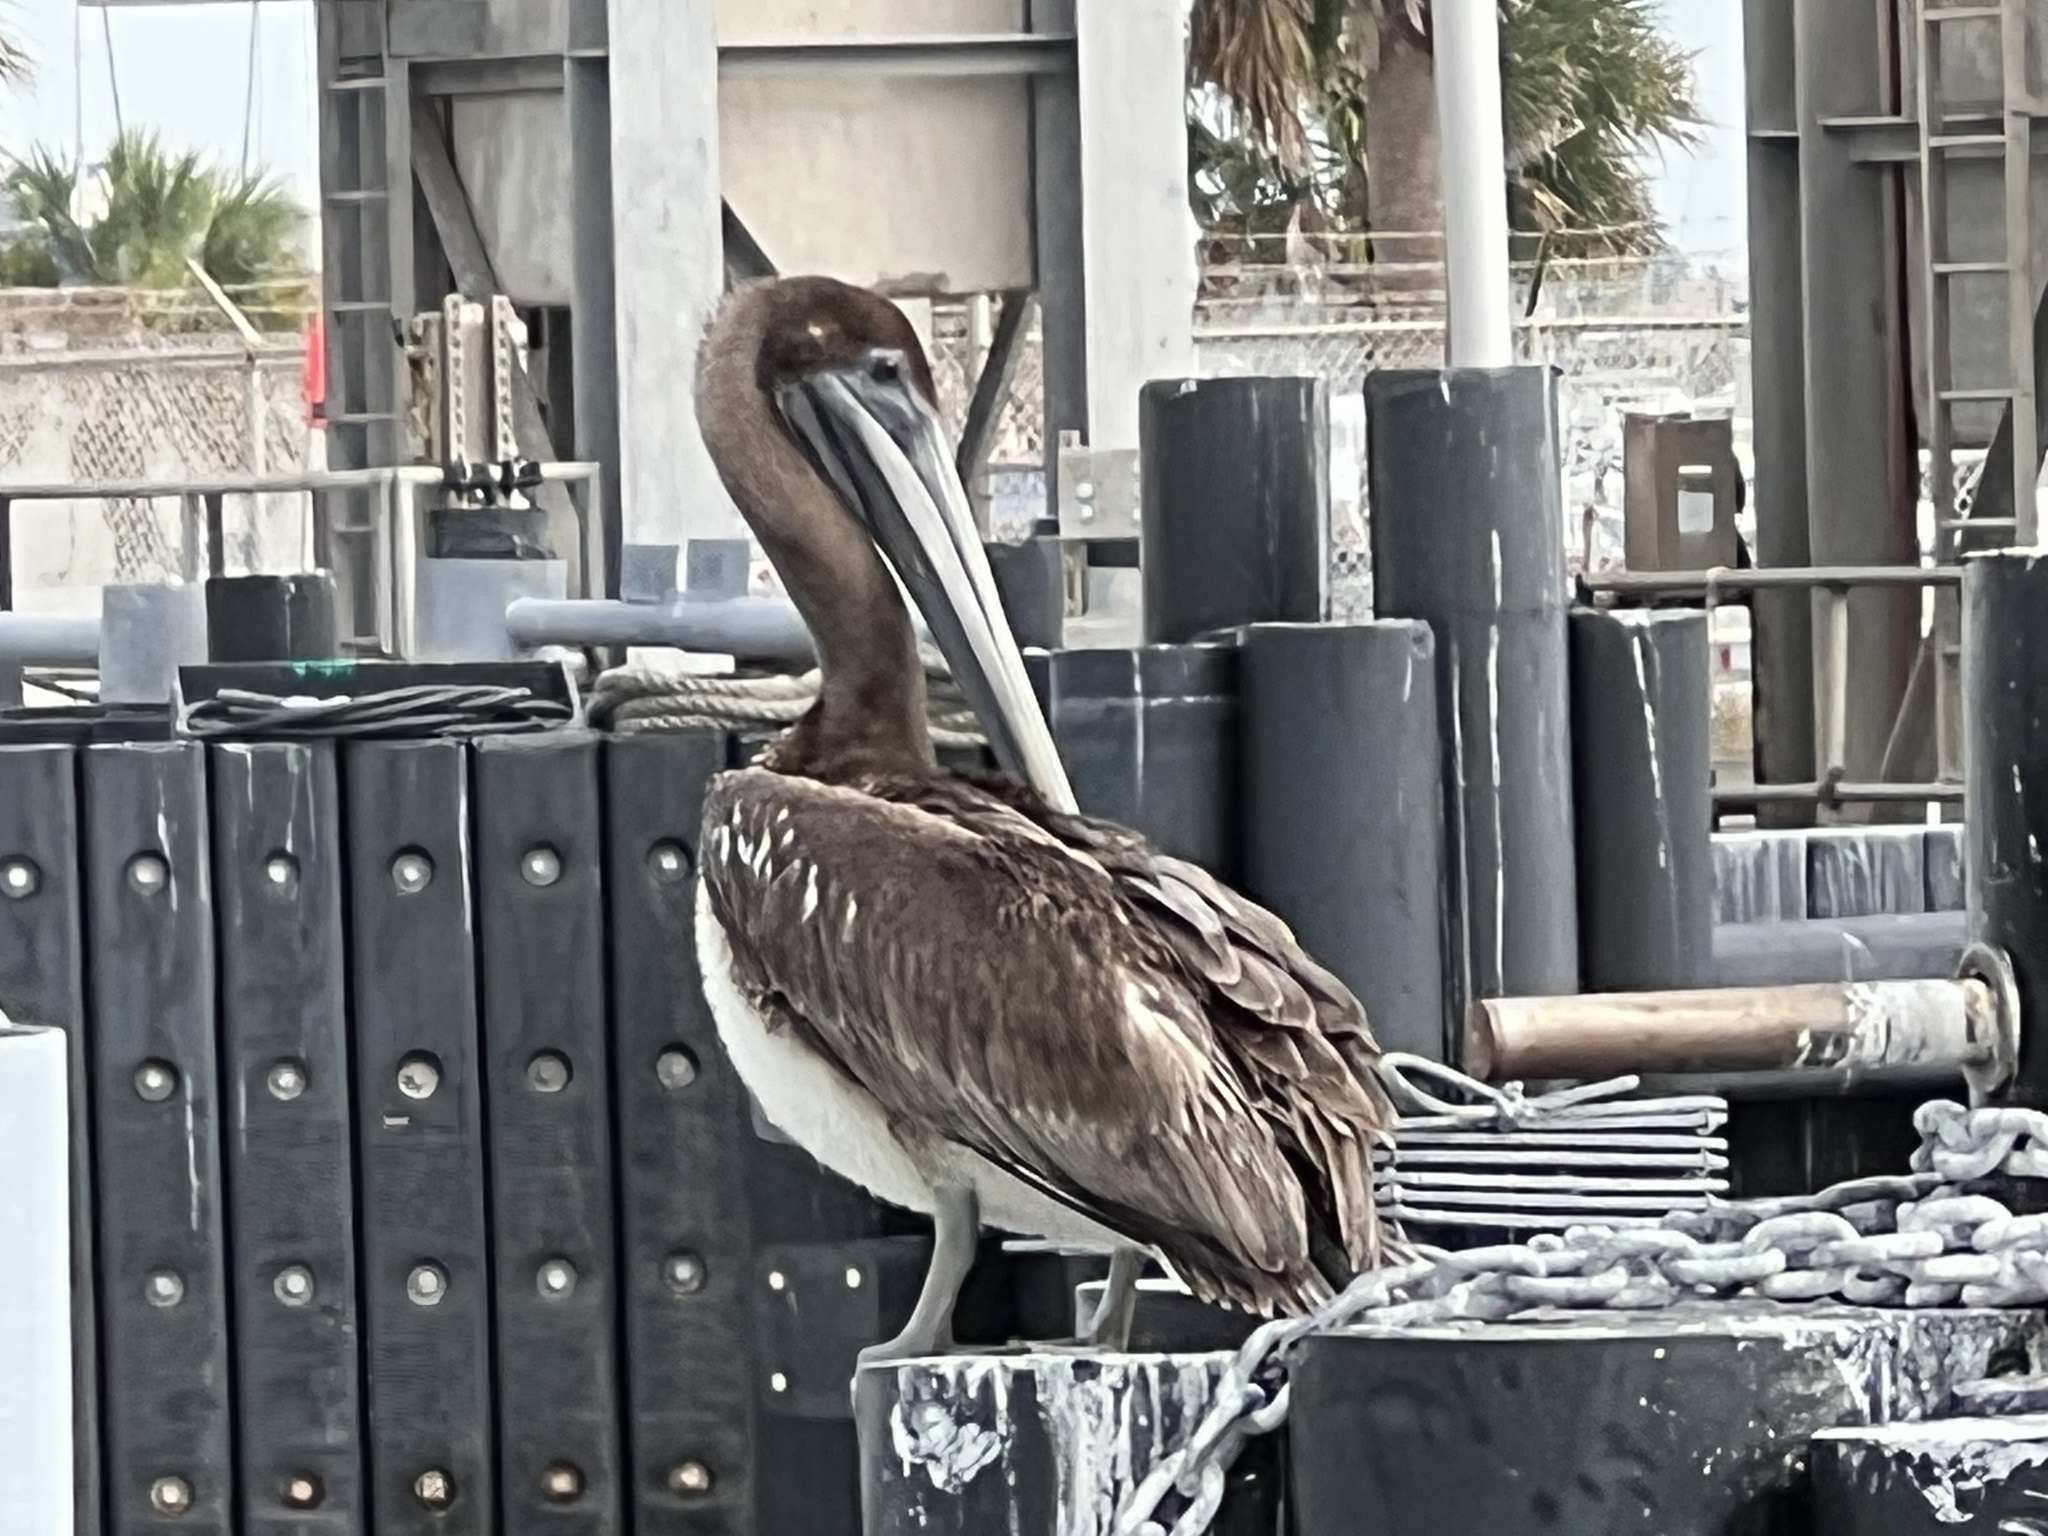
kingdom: Animalia
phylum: Chordata
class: Aves
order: Pelecaniformes
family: Pelecanidae
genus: Pelecanus
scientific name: Pelecanus occidentalis
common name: Brown pelican
